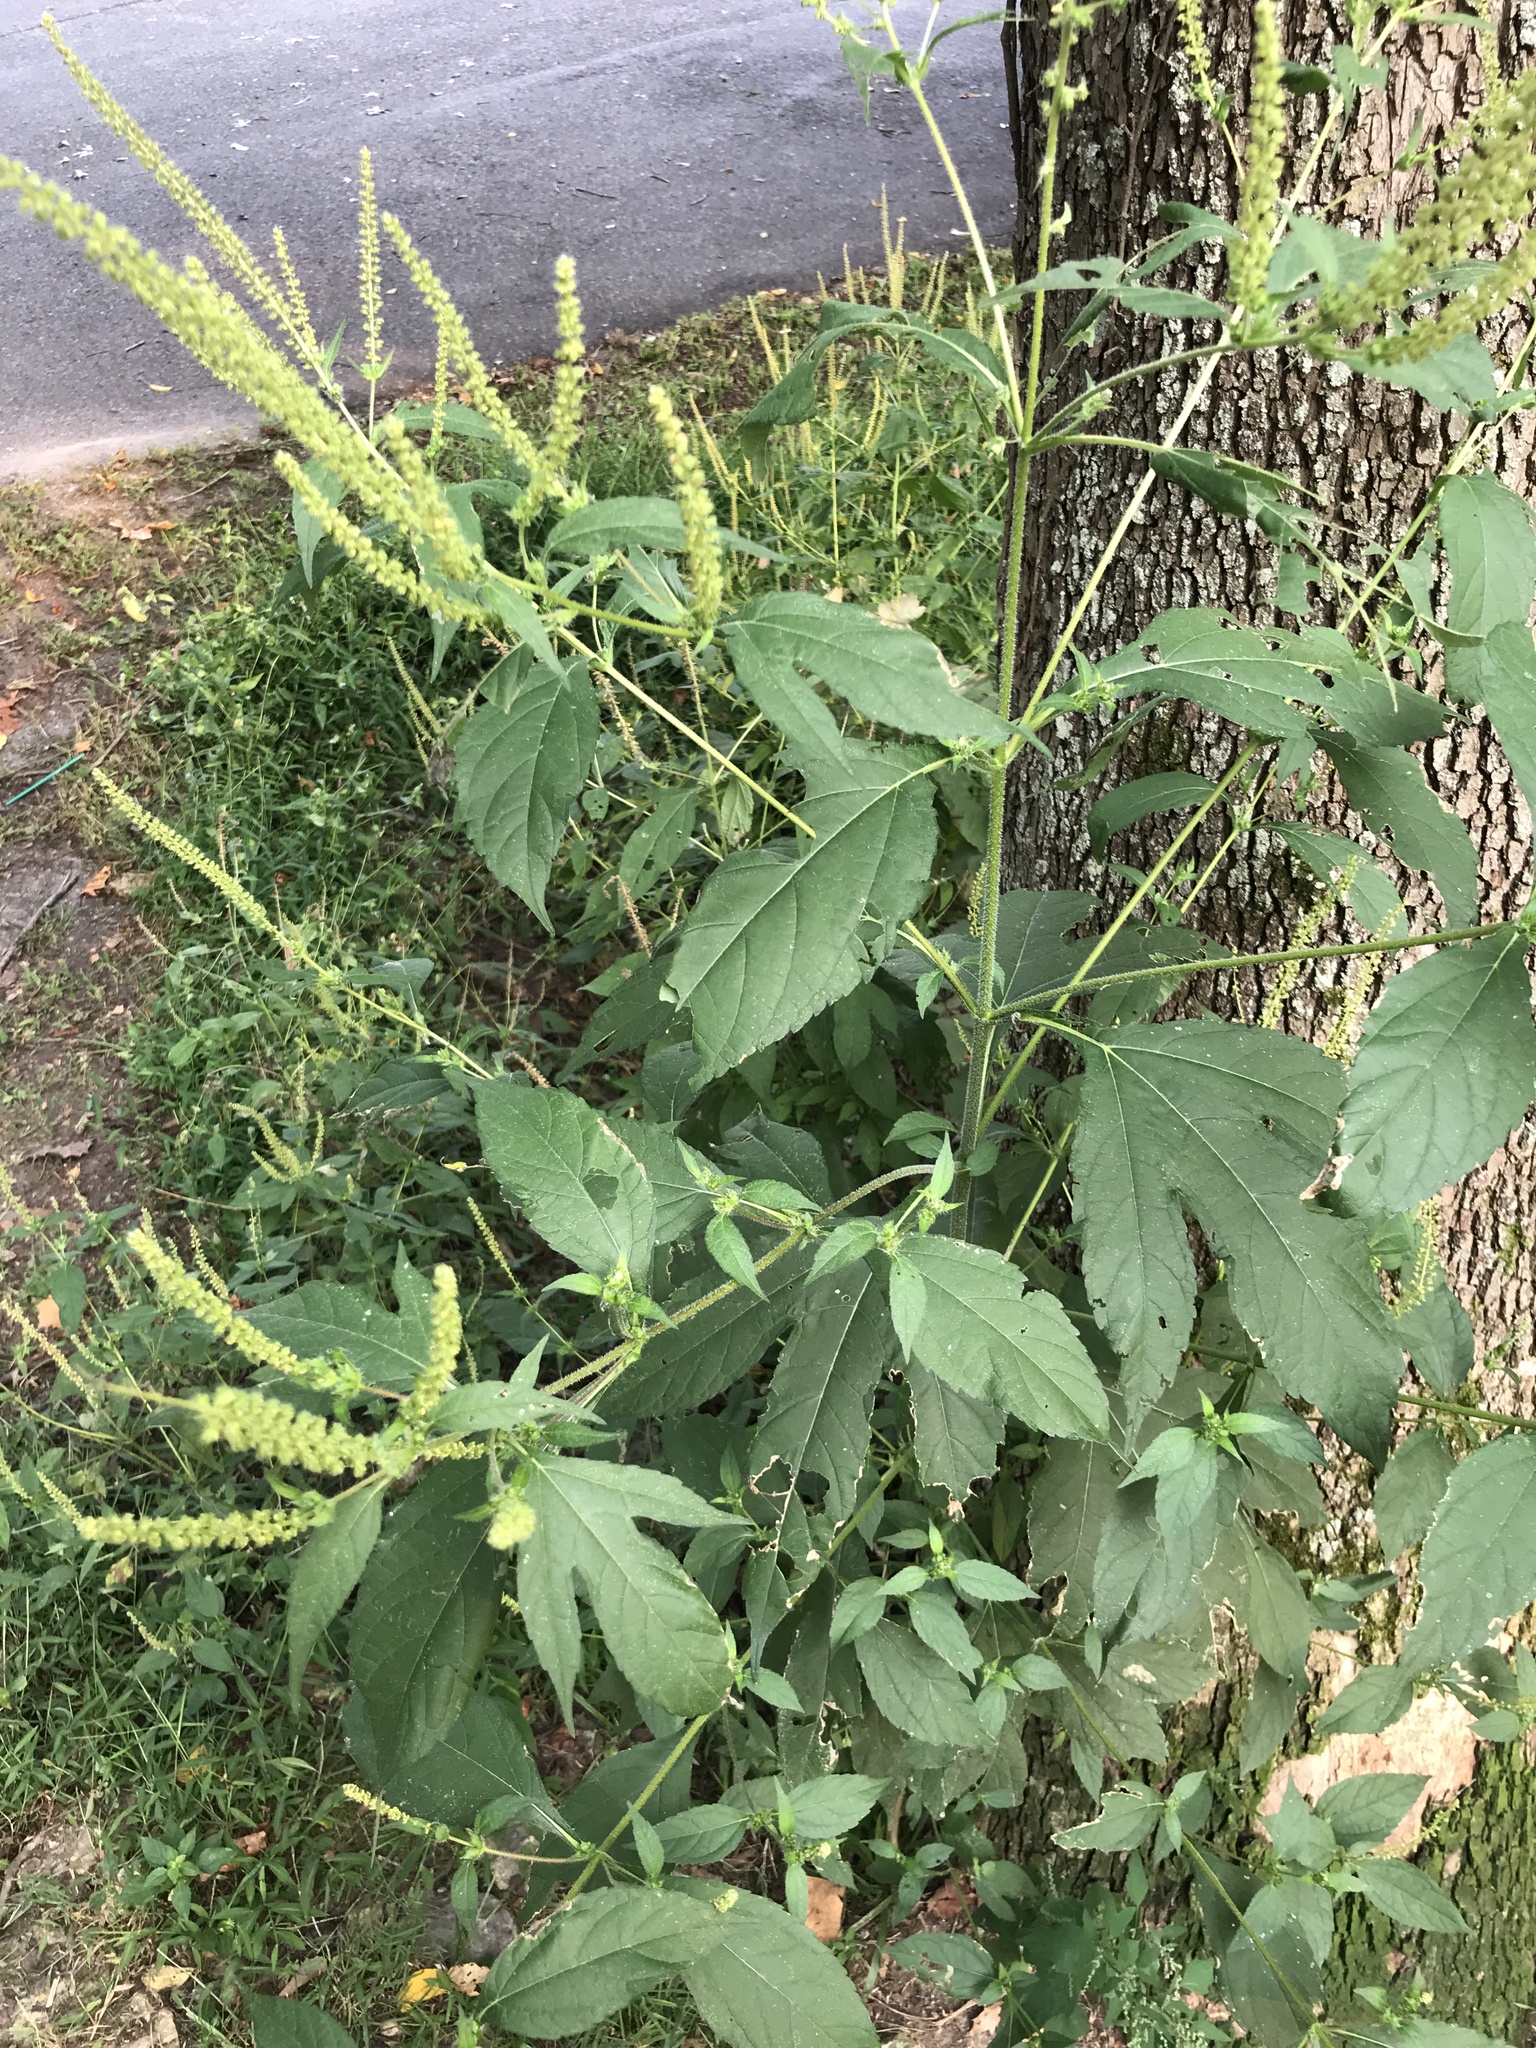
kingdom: Plantae
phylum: Tracheophyta
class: Magnoliopsida
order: Asterales
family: Asteraceae
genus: Ambrosia
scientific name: Ambrosia trifida
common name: Giant ragweed
